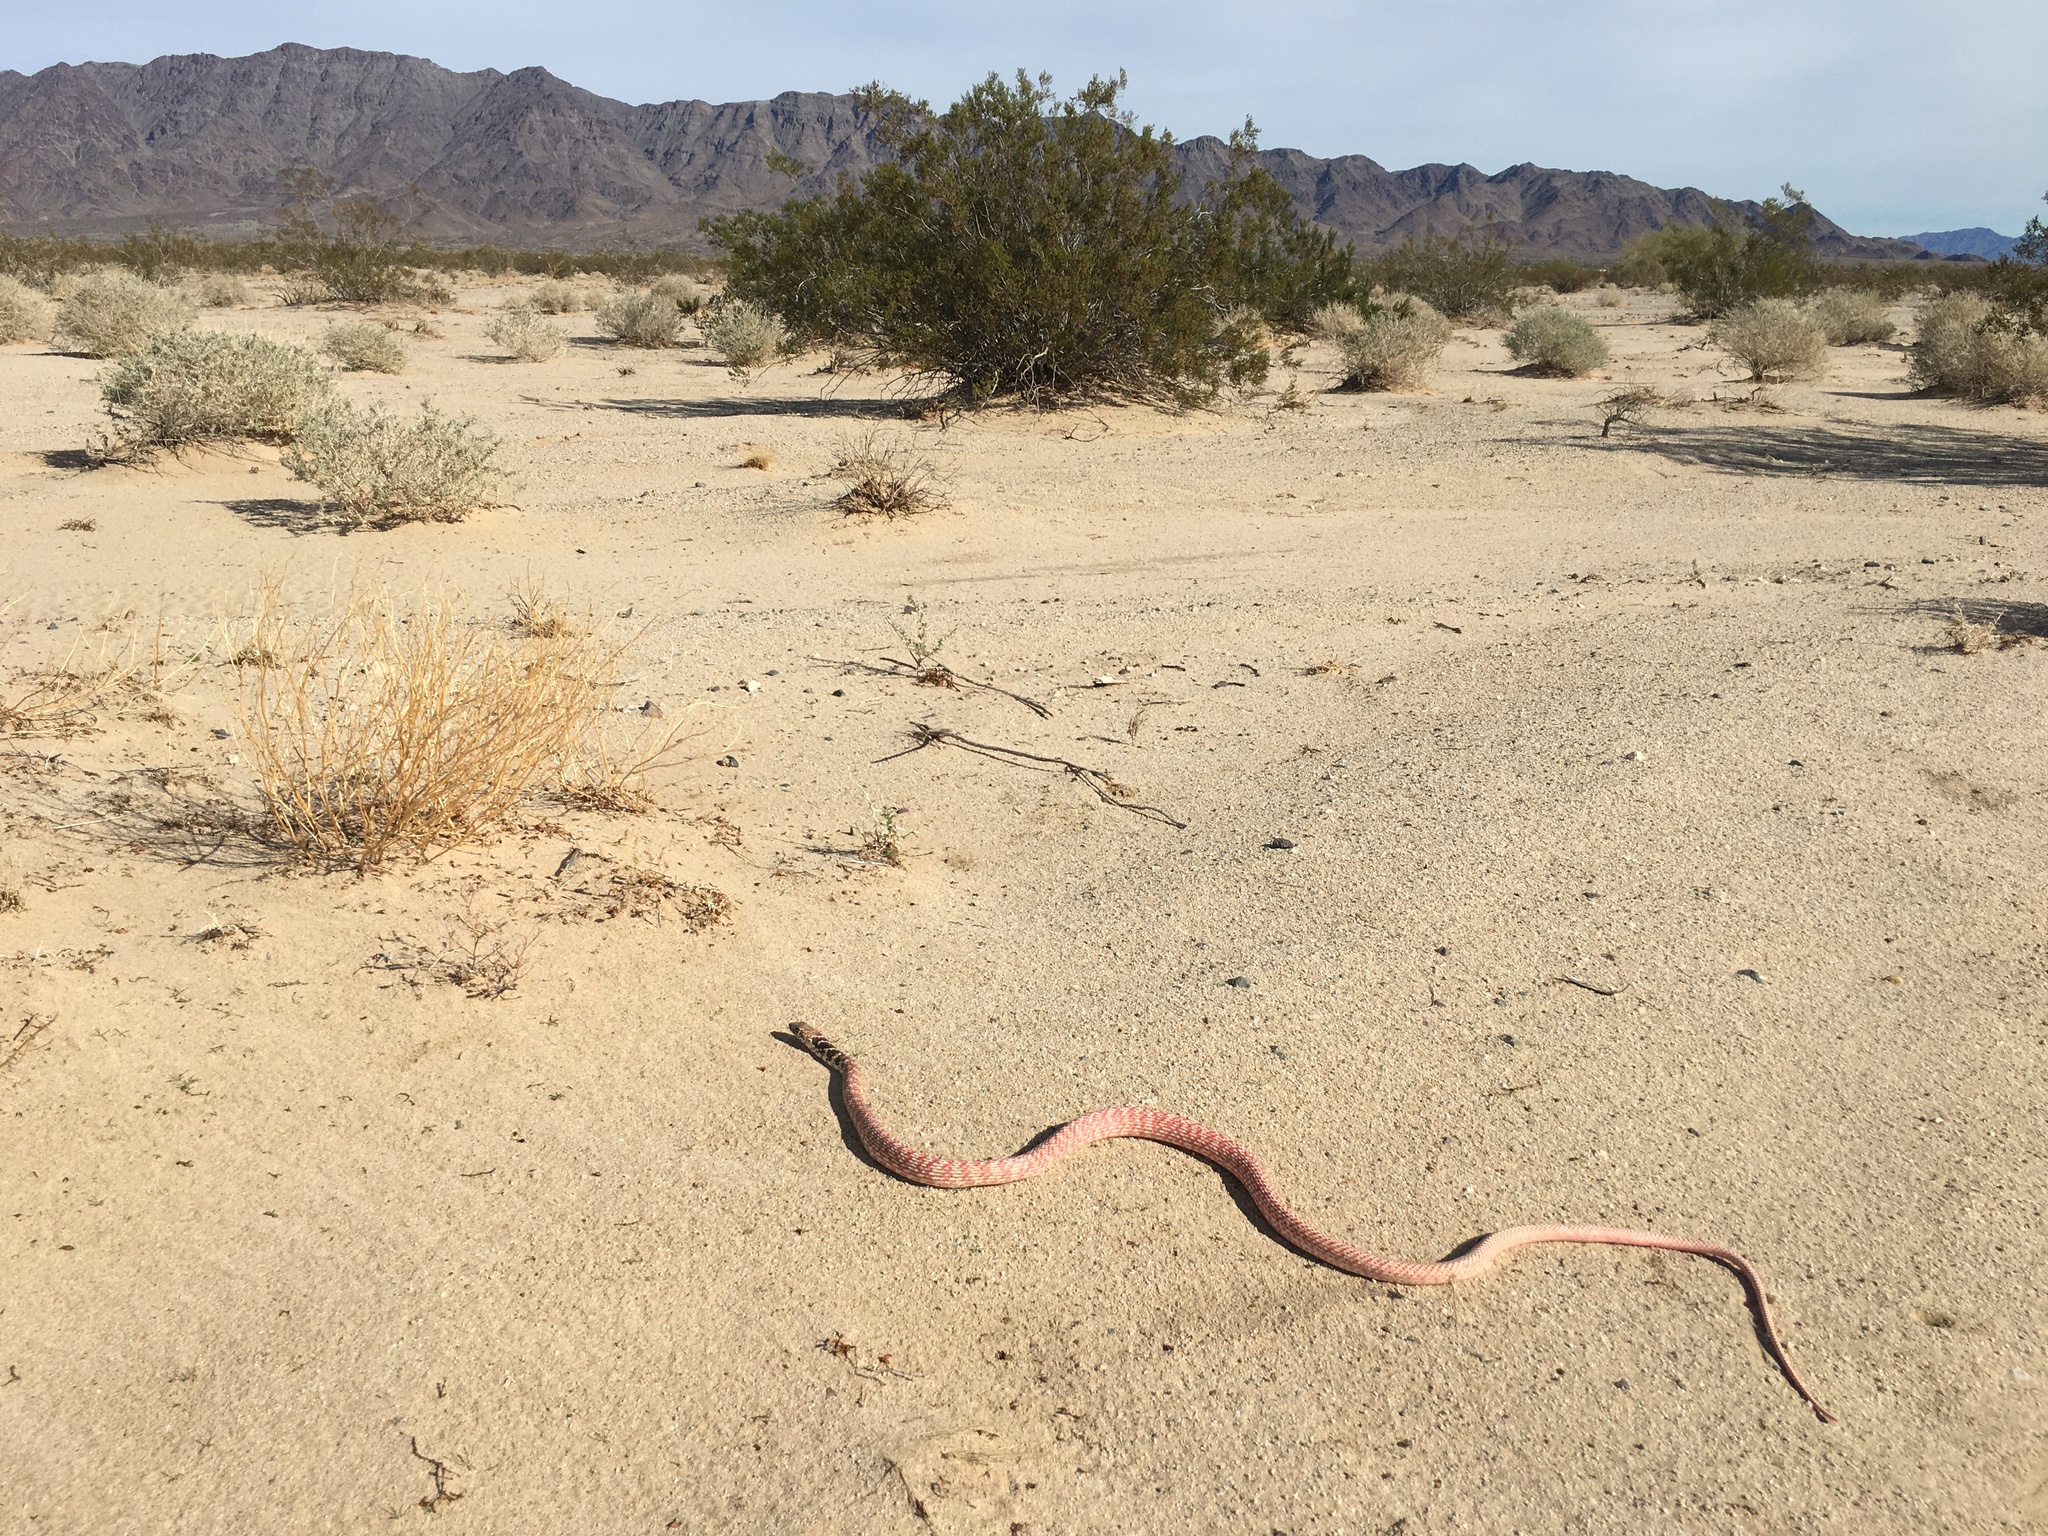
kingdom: Animalia
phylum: Chordata
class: Squamata
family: Colubridae
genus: Masticophis
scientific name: Masticophis flagellum
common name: Coachwhip
